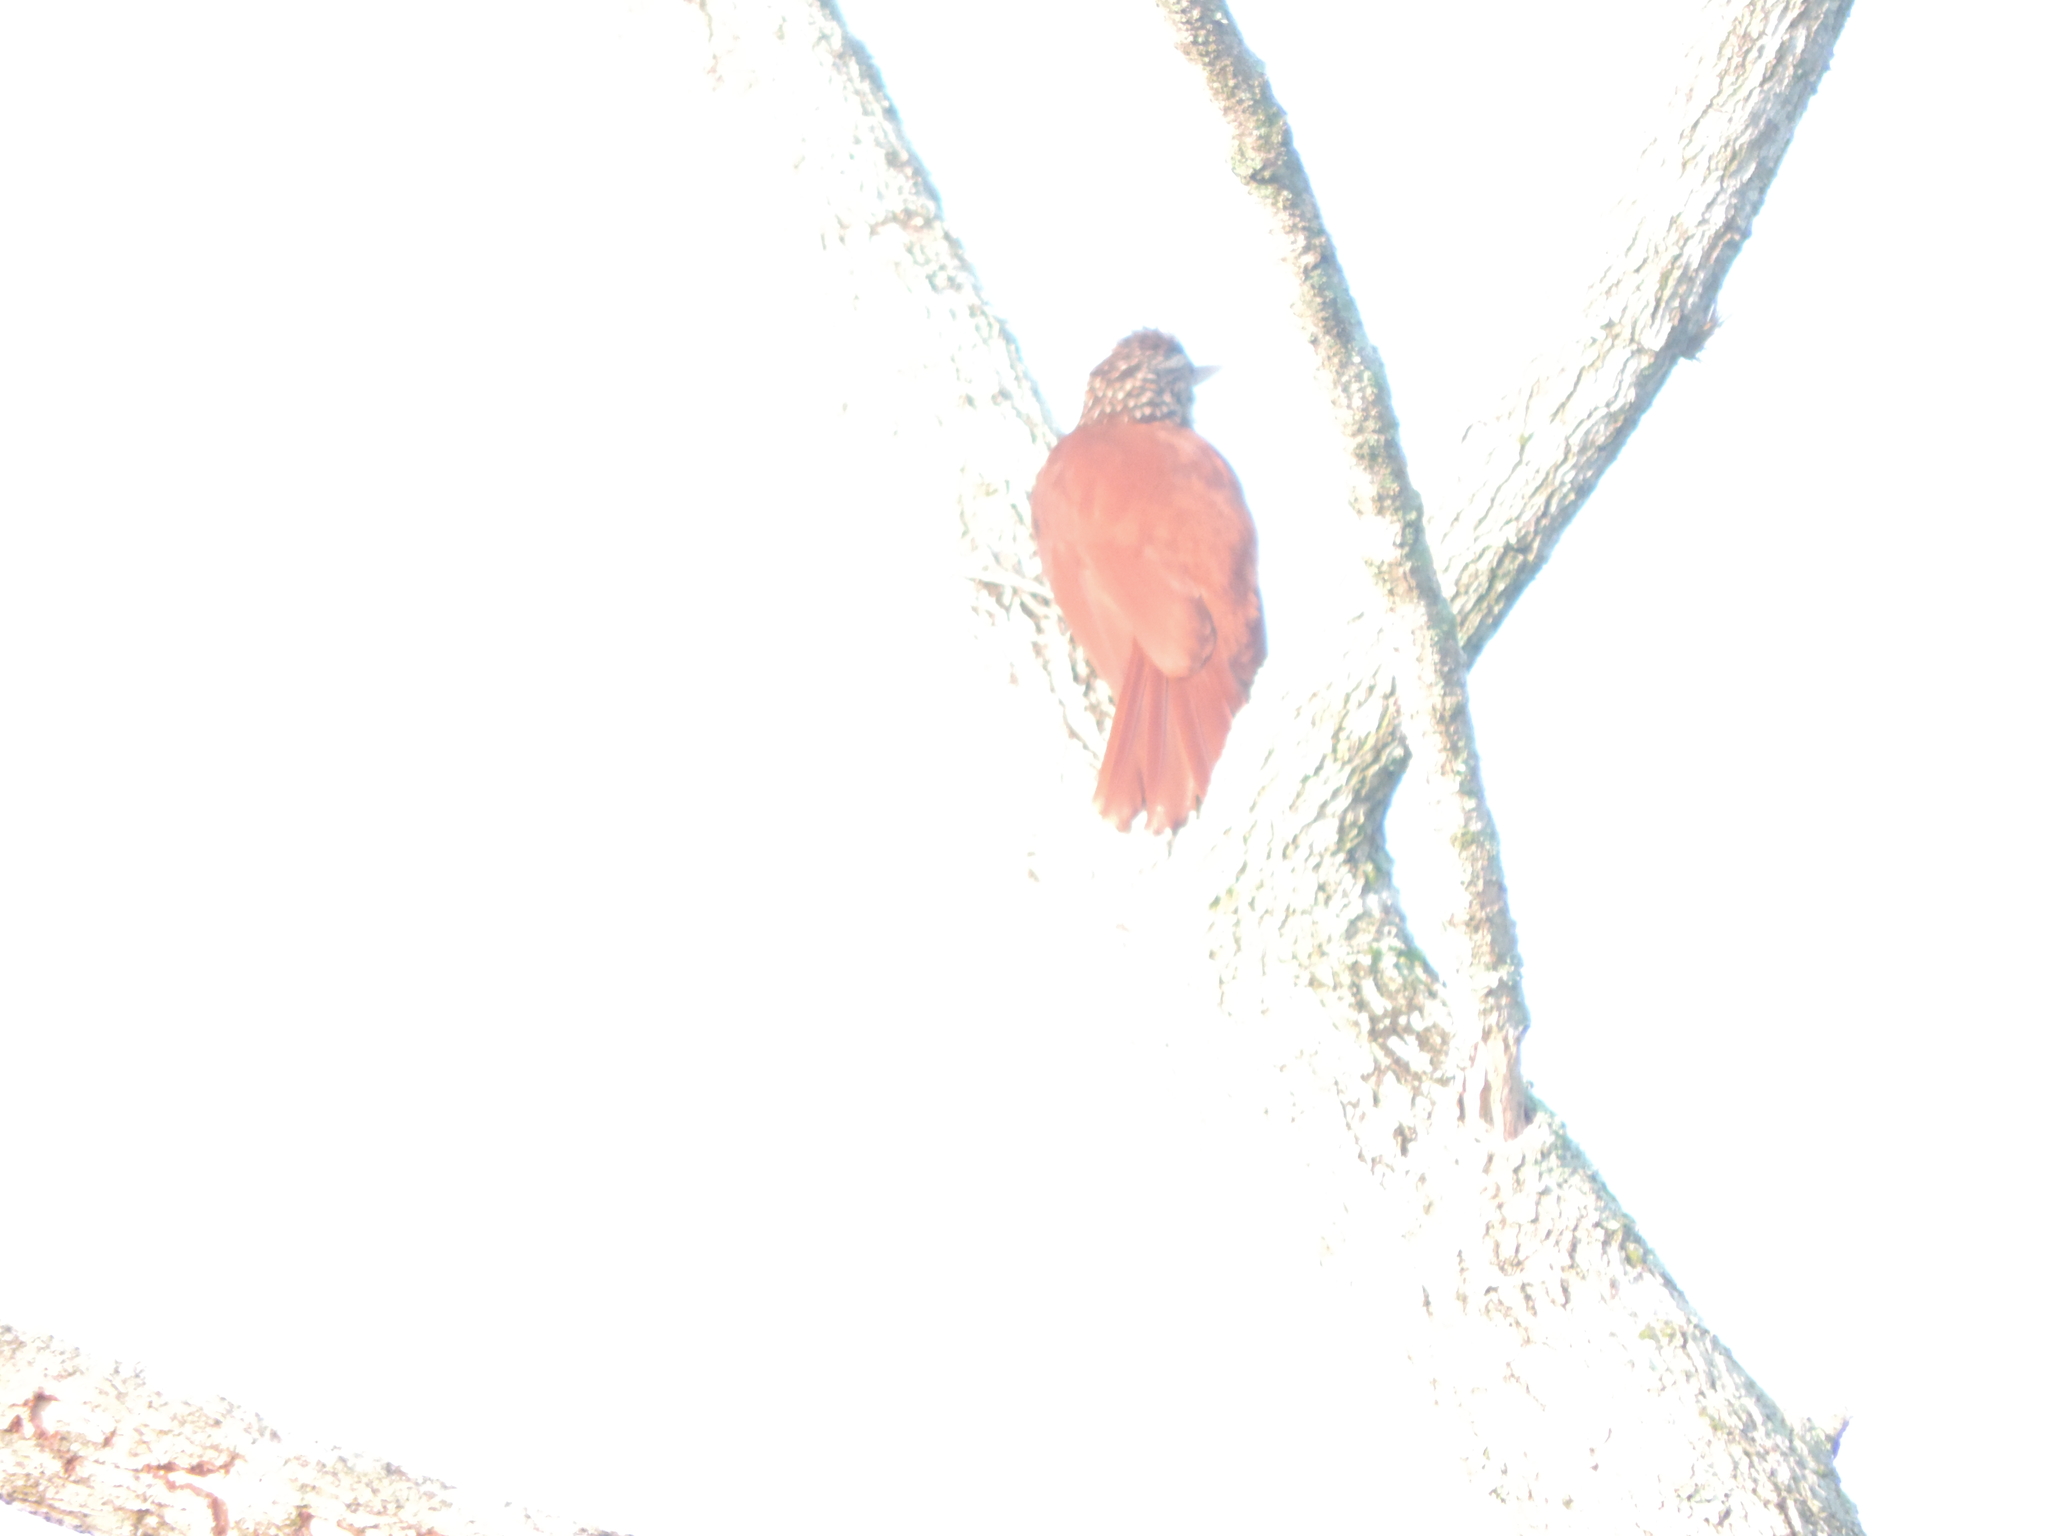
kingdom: Animalia
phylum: Chordata
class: Aves
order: Passeriformes
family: Furnariidae
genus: Xiphorhynchus
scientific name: Xiphorhynchus picus
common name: Straight-billed woodcreeper
